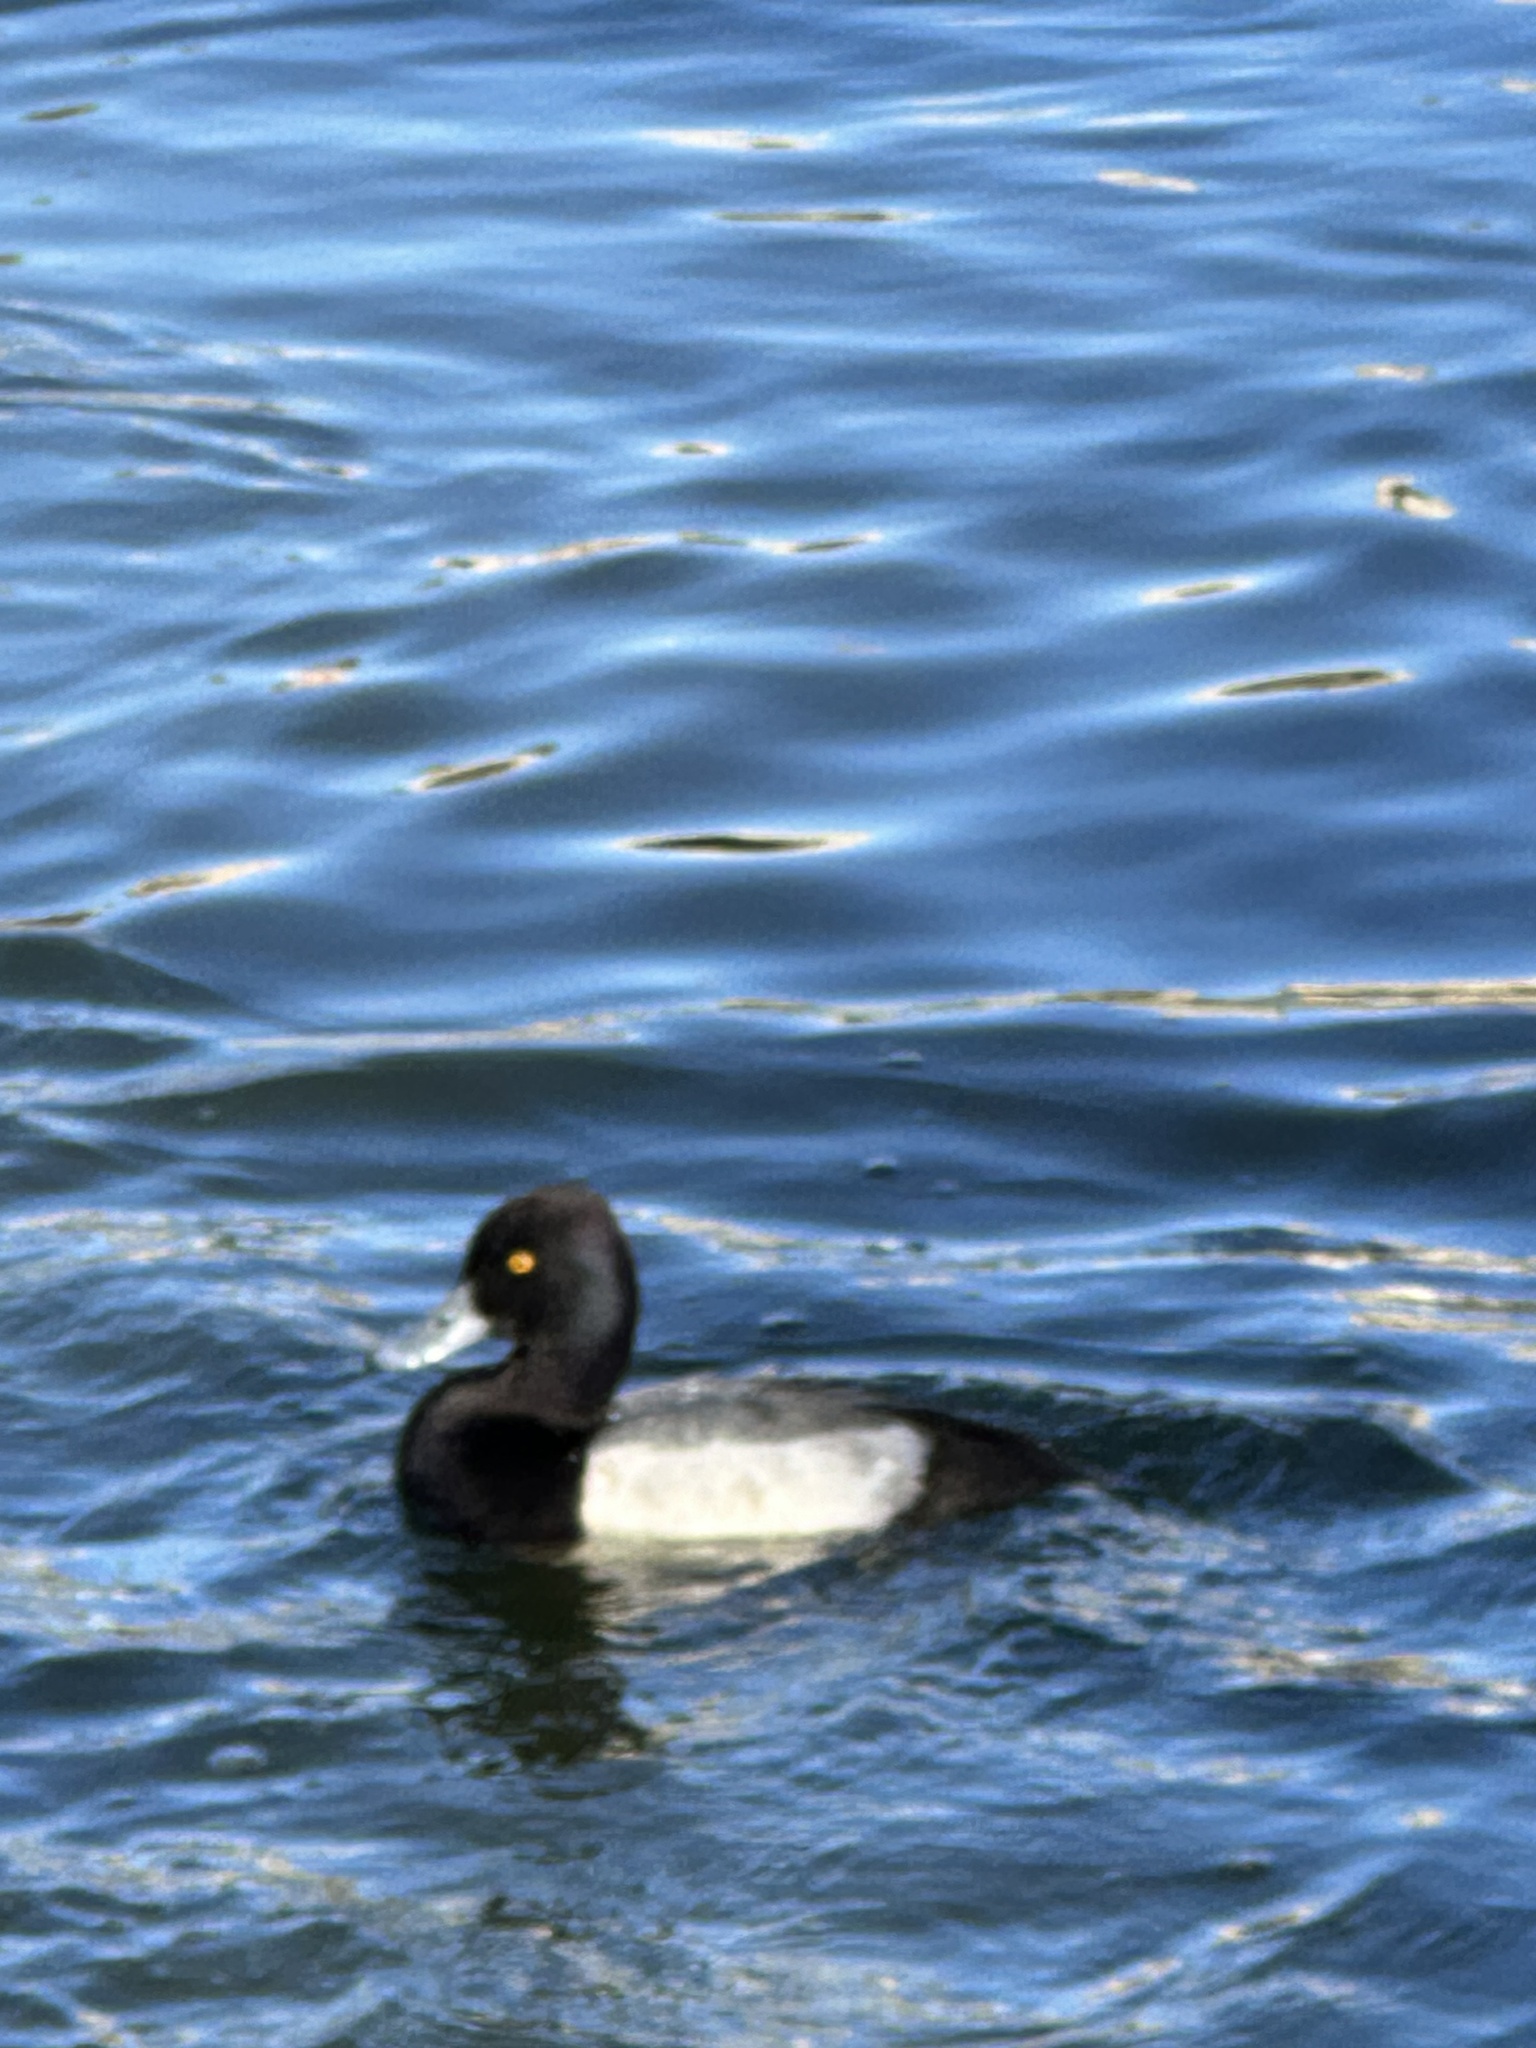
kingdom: Animalia
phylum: Chordata
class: Aves
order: Anseriformes
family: Anatidae
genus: Aythya
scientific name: Aythya affinis
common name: Lesser scaup
